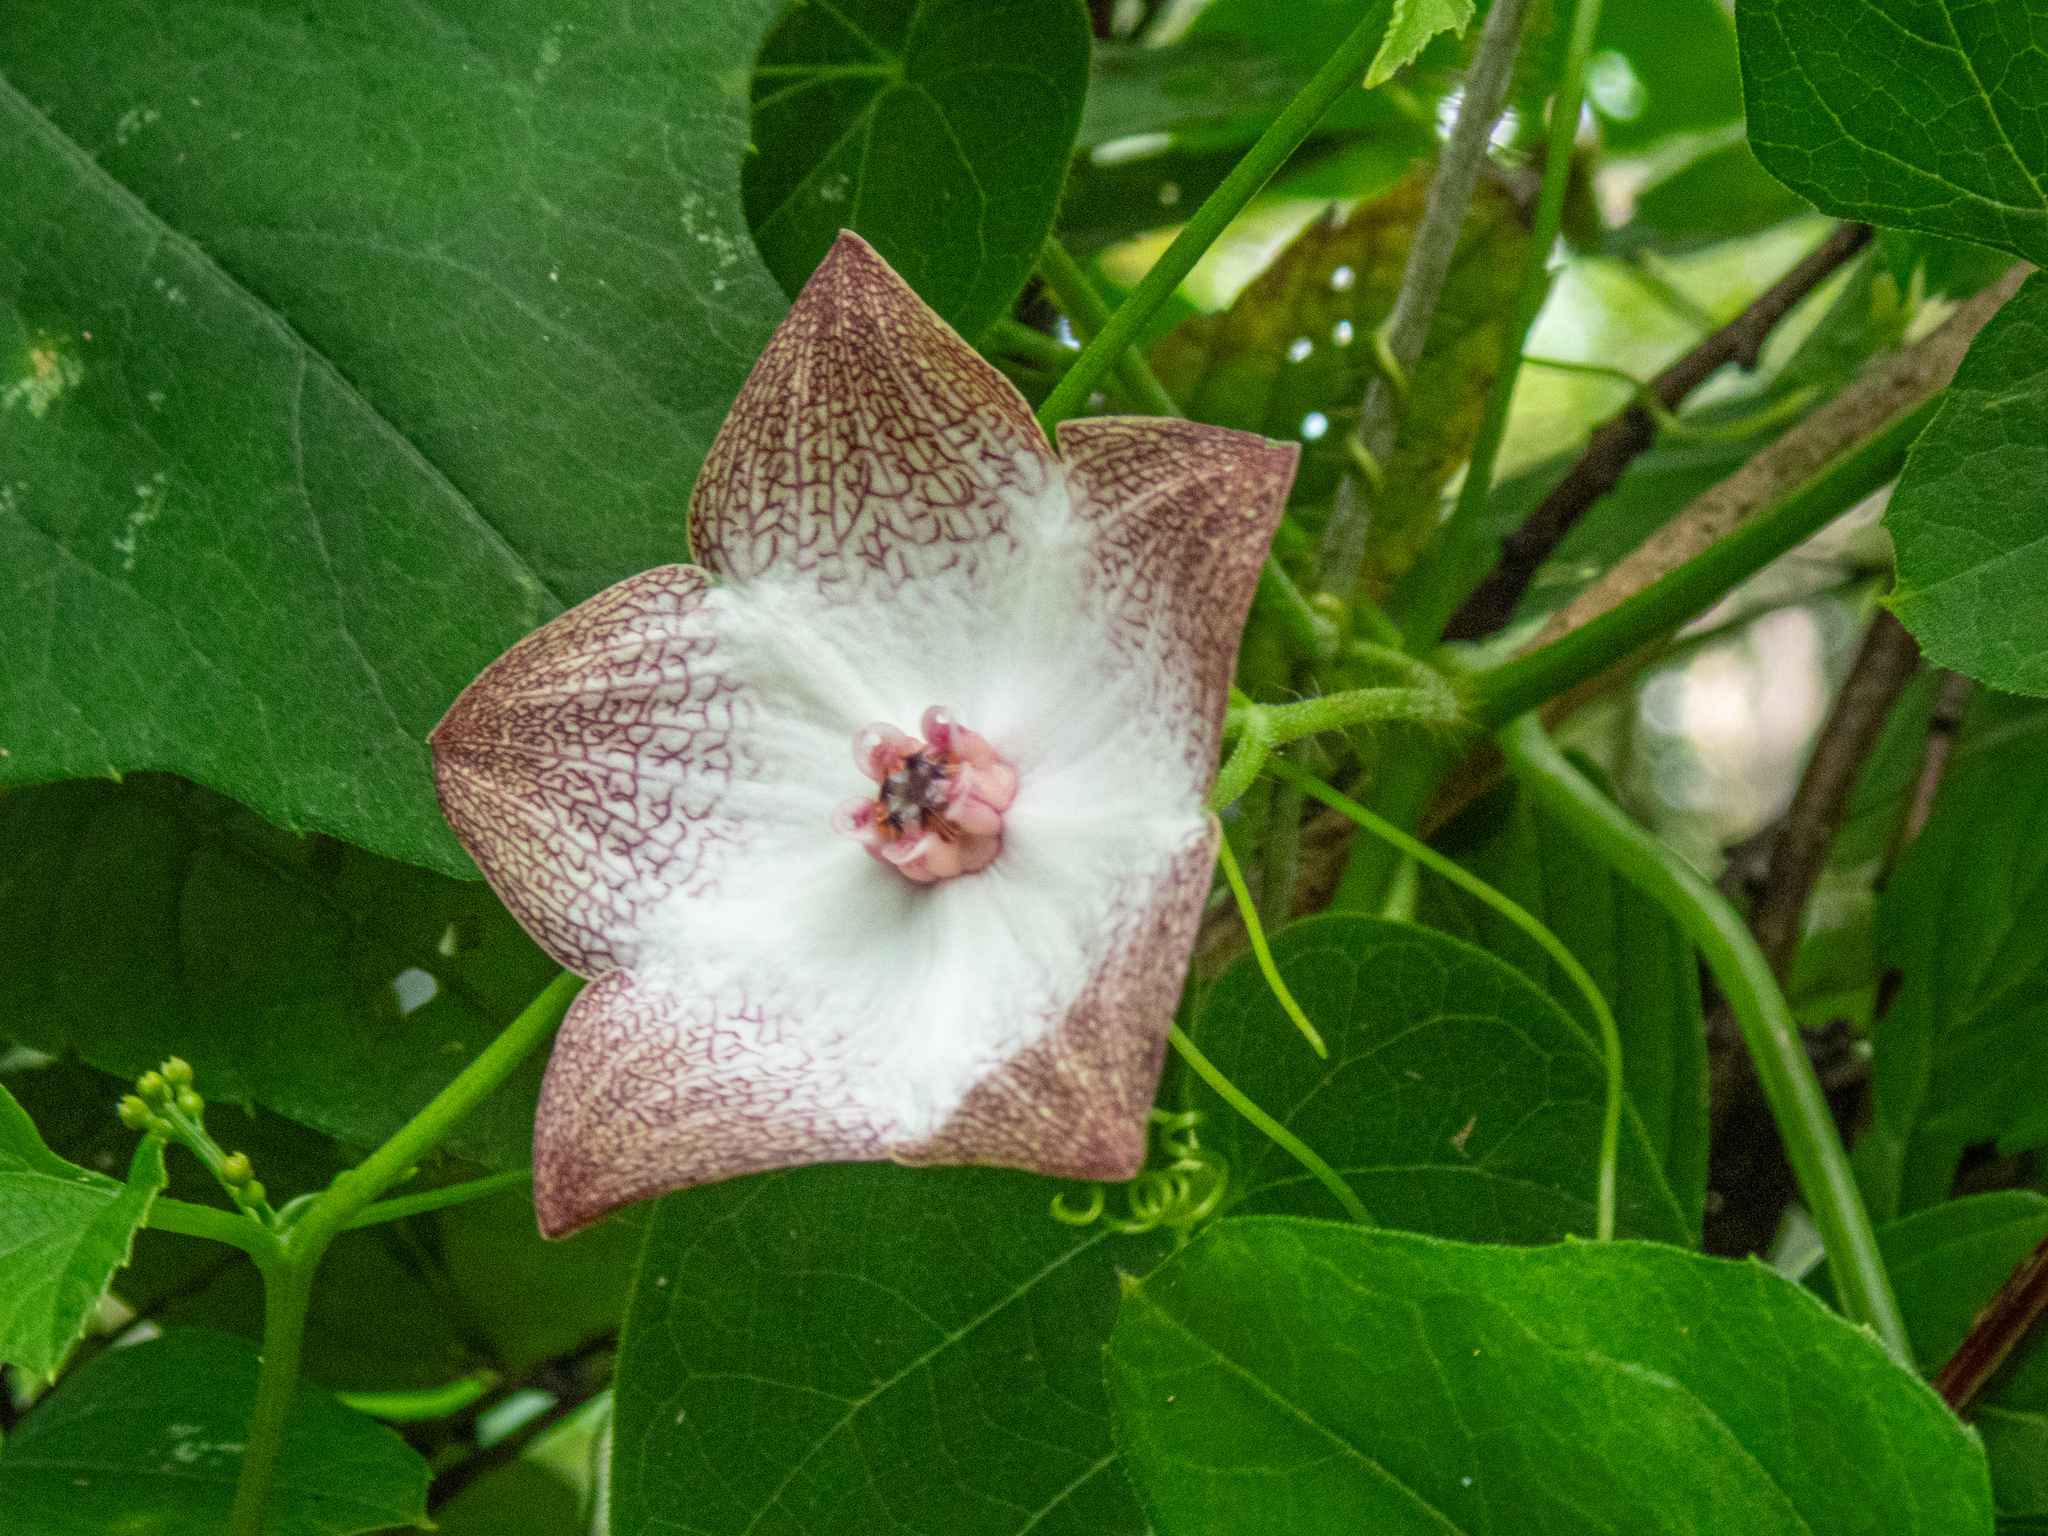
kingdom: Plantae
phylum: Tracheophyta
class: Magnoliopsida
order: Gentianales
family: Apocynaceae
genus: Polystemma
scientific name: Polystemma guatemalense
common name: Arborescente rattan
